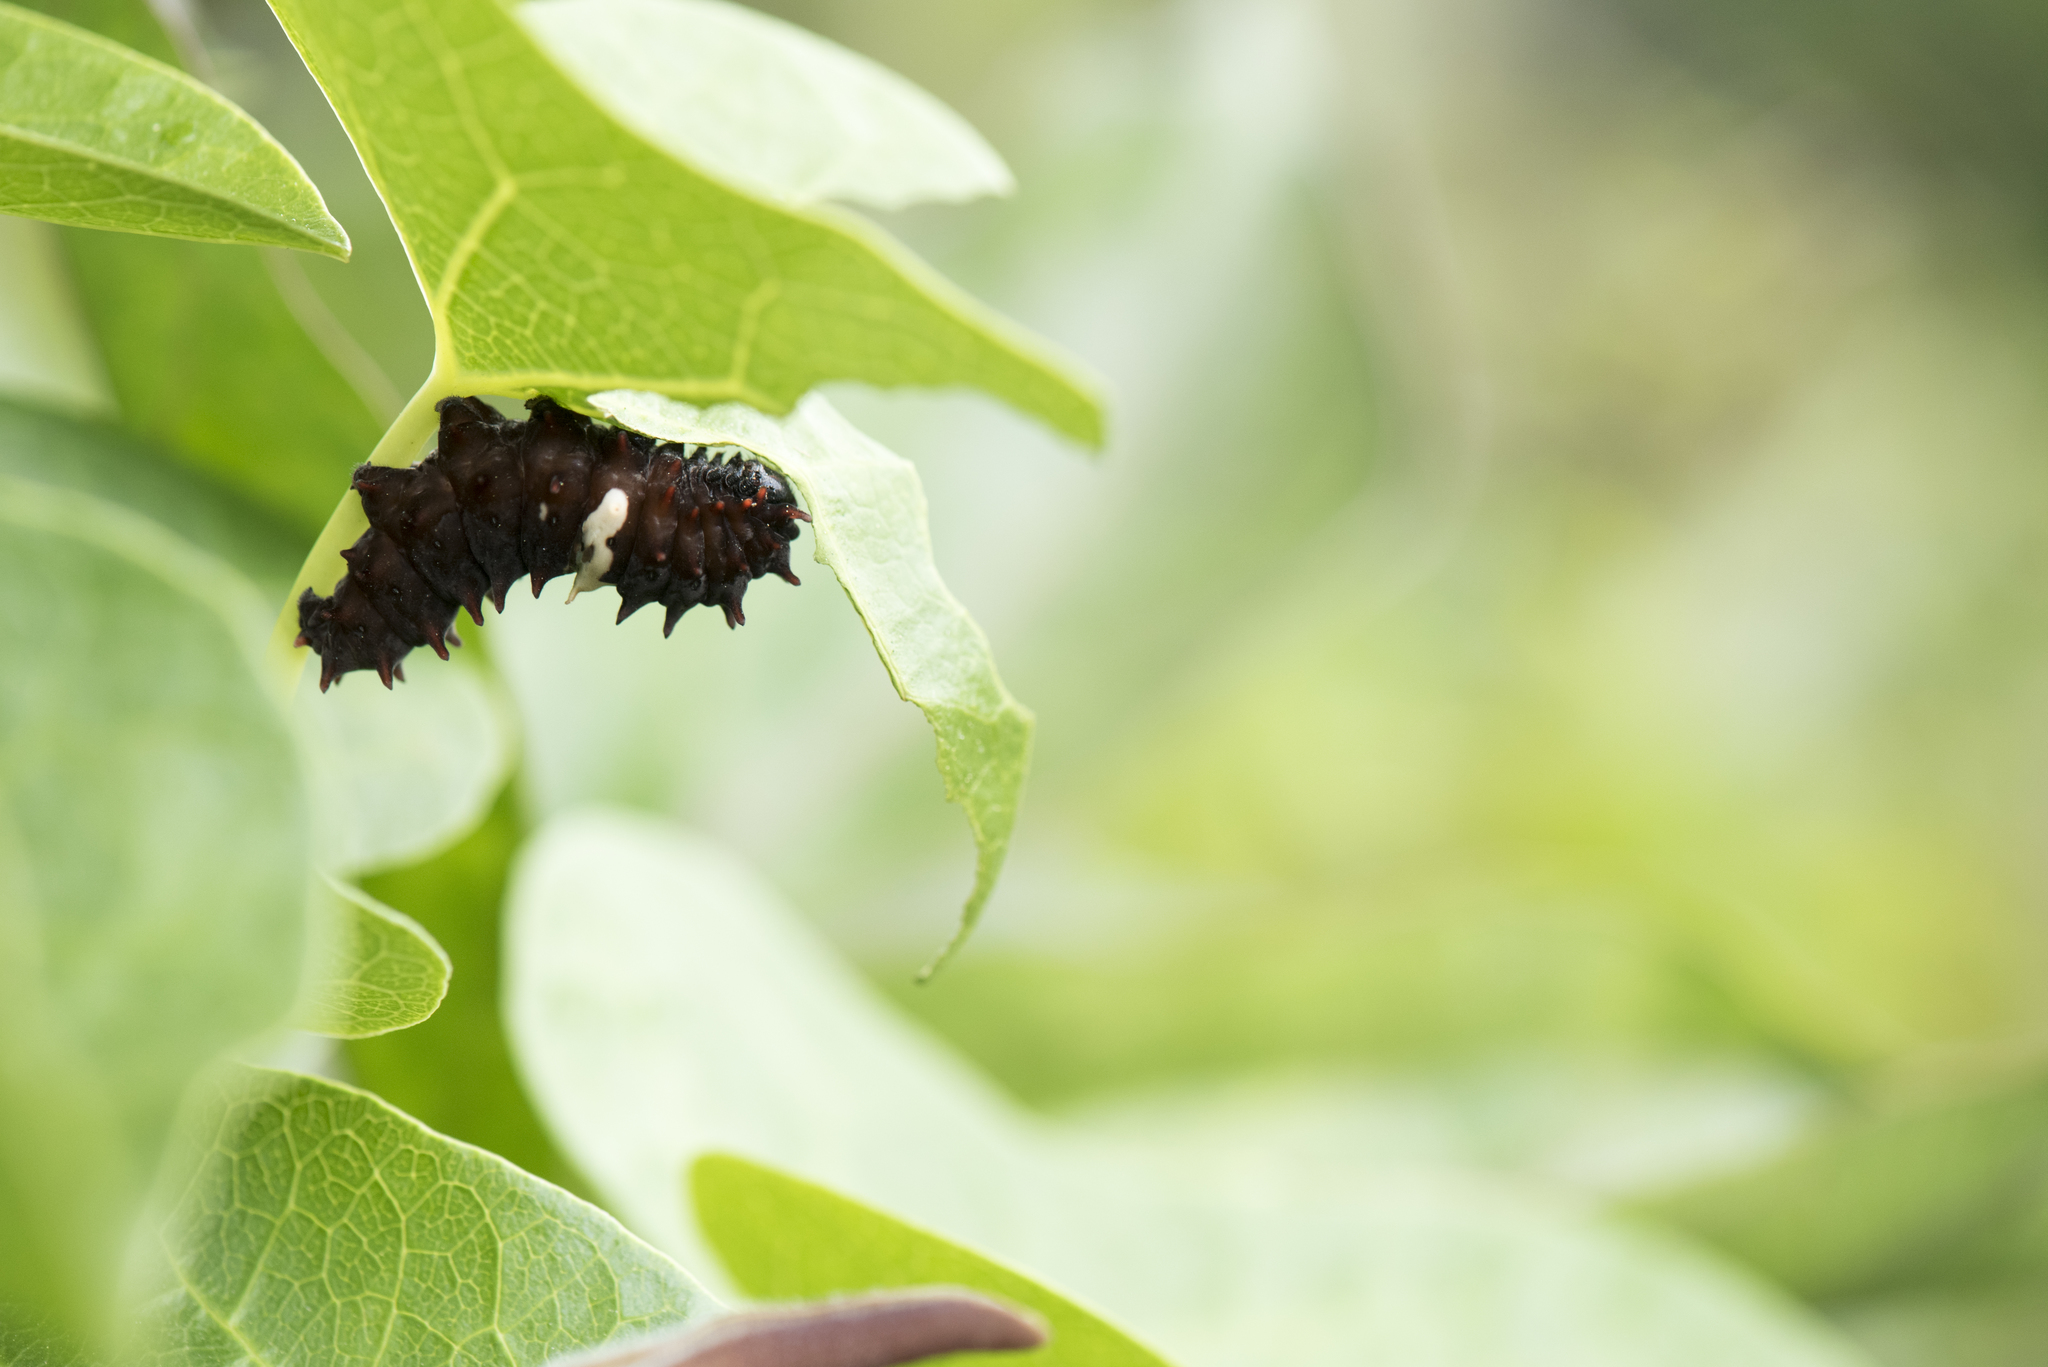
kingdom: Animalia
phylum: Arthropoda
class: Insecta
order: Lepidoptera
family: Papilionidae
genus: Pachliopta
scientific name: Pachliopta aristolochiae
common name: Common rose
